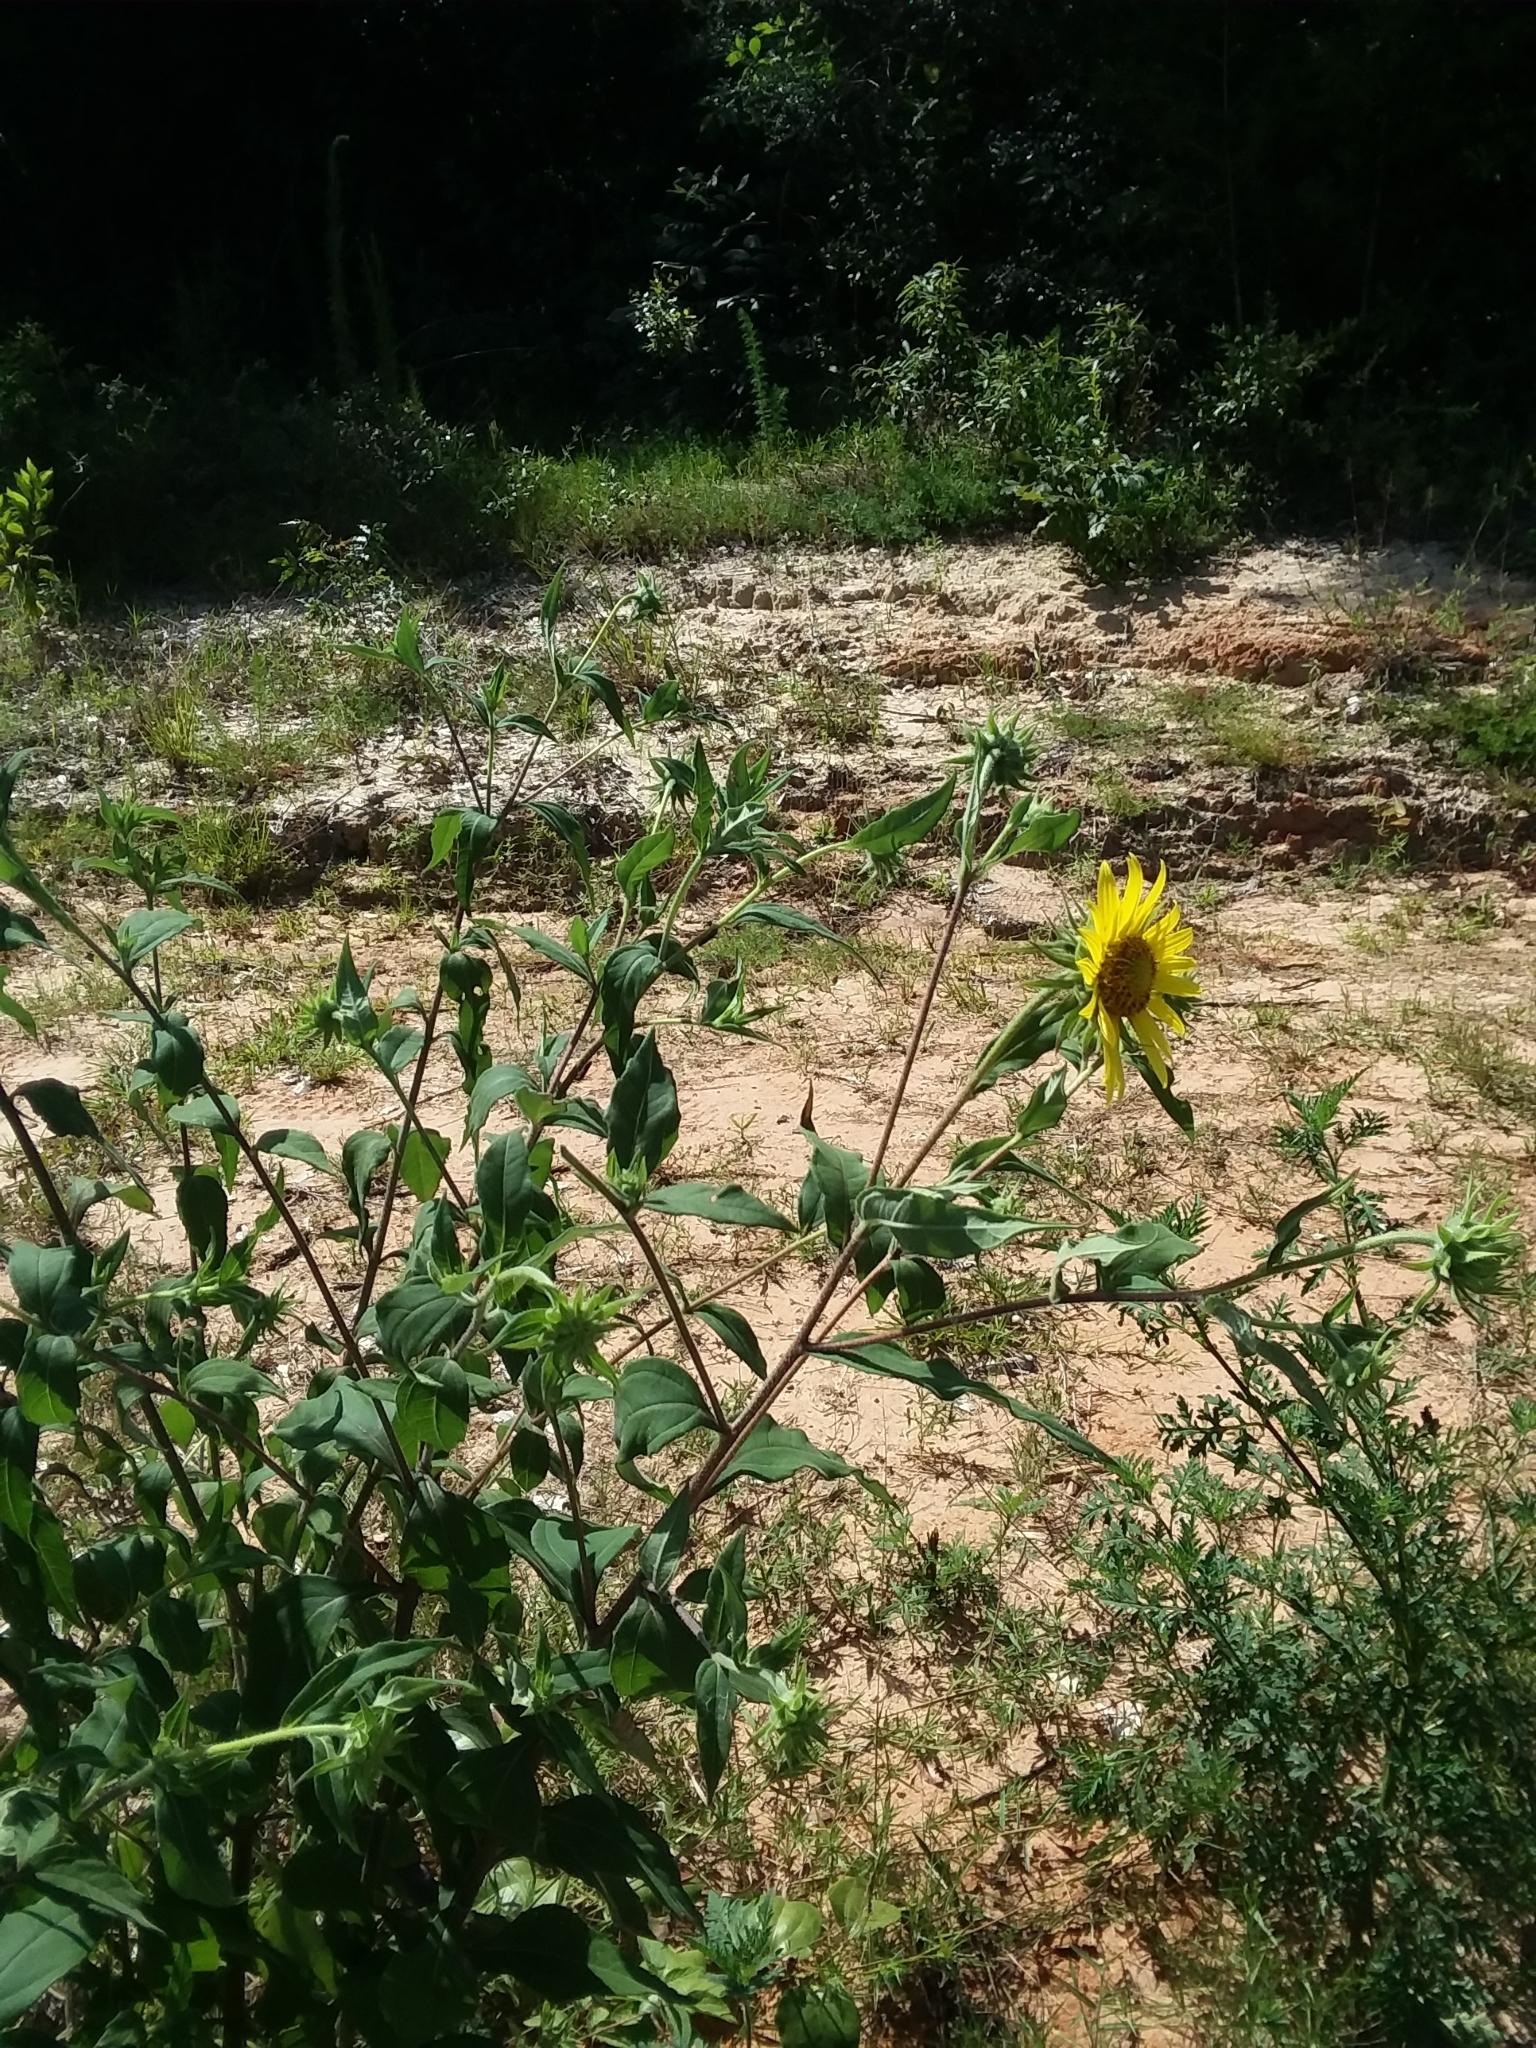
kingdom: Plantae
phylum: Tracheophyta
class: Magnoliopsida
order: Asterales
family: Asteraceae
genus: Helianthus
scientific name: Helianthus resinosus
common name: Resin-dot sunflower
